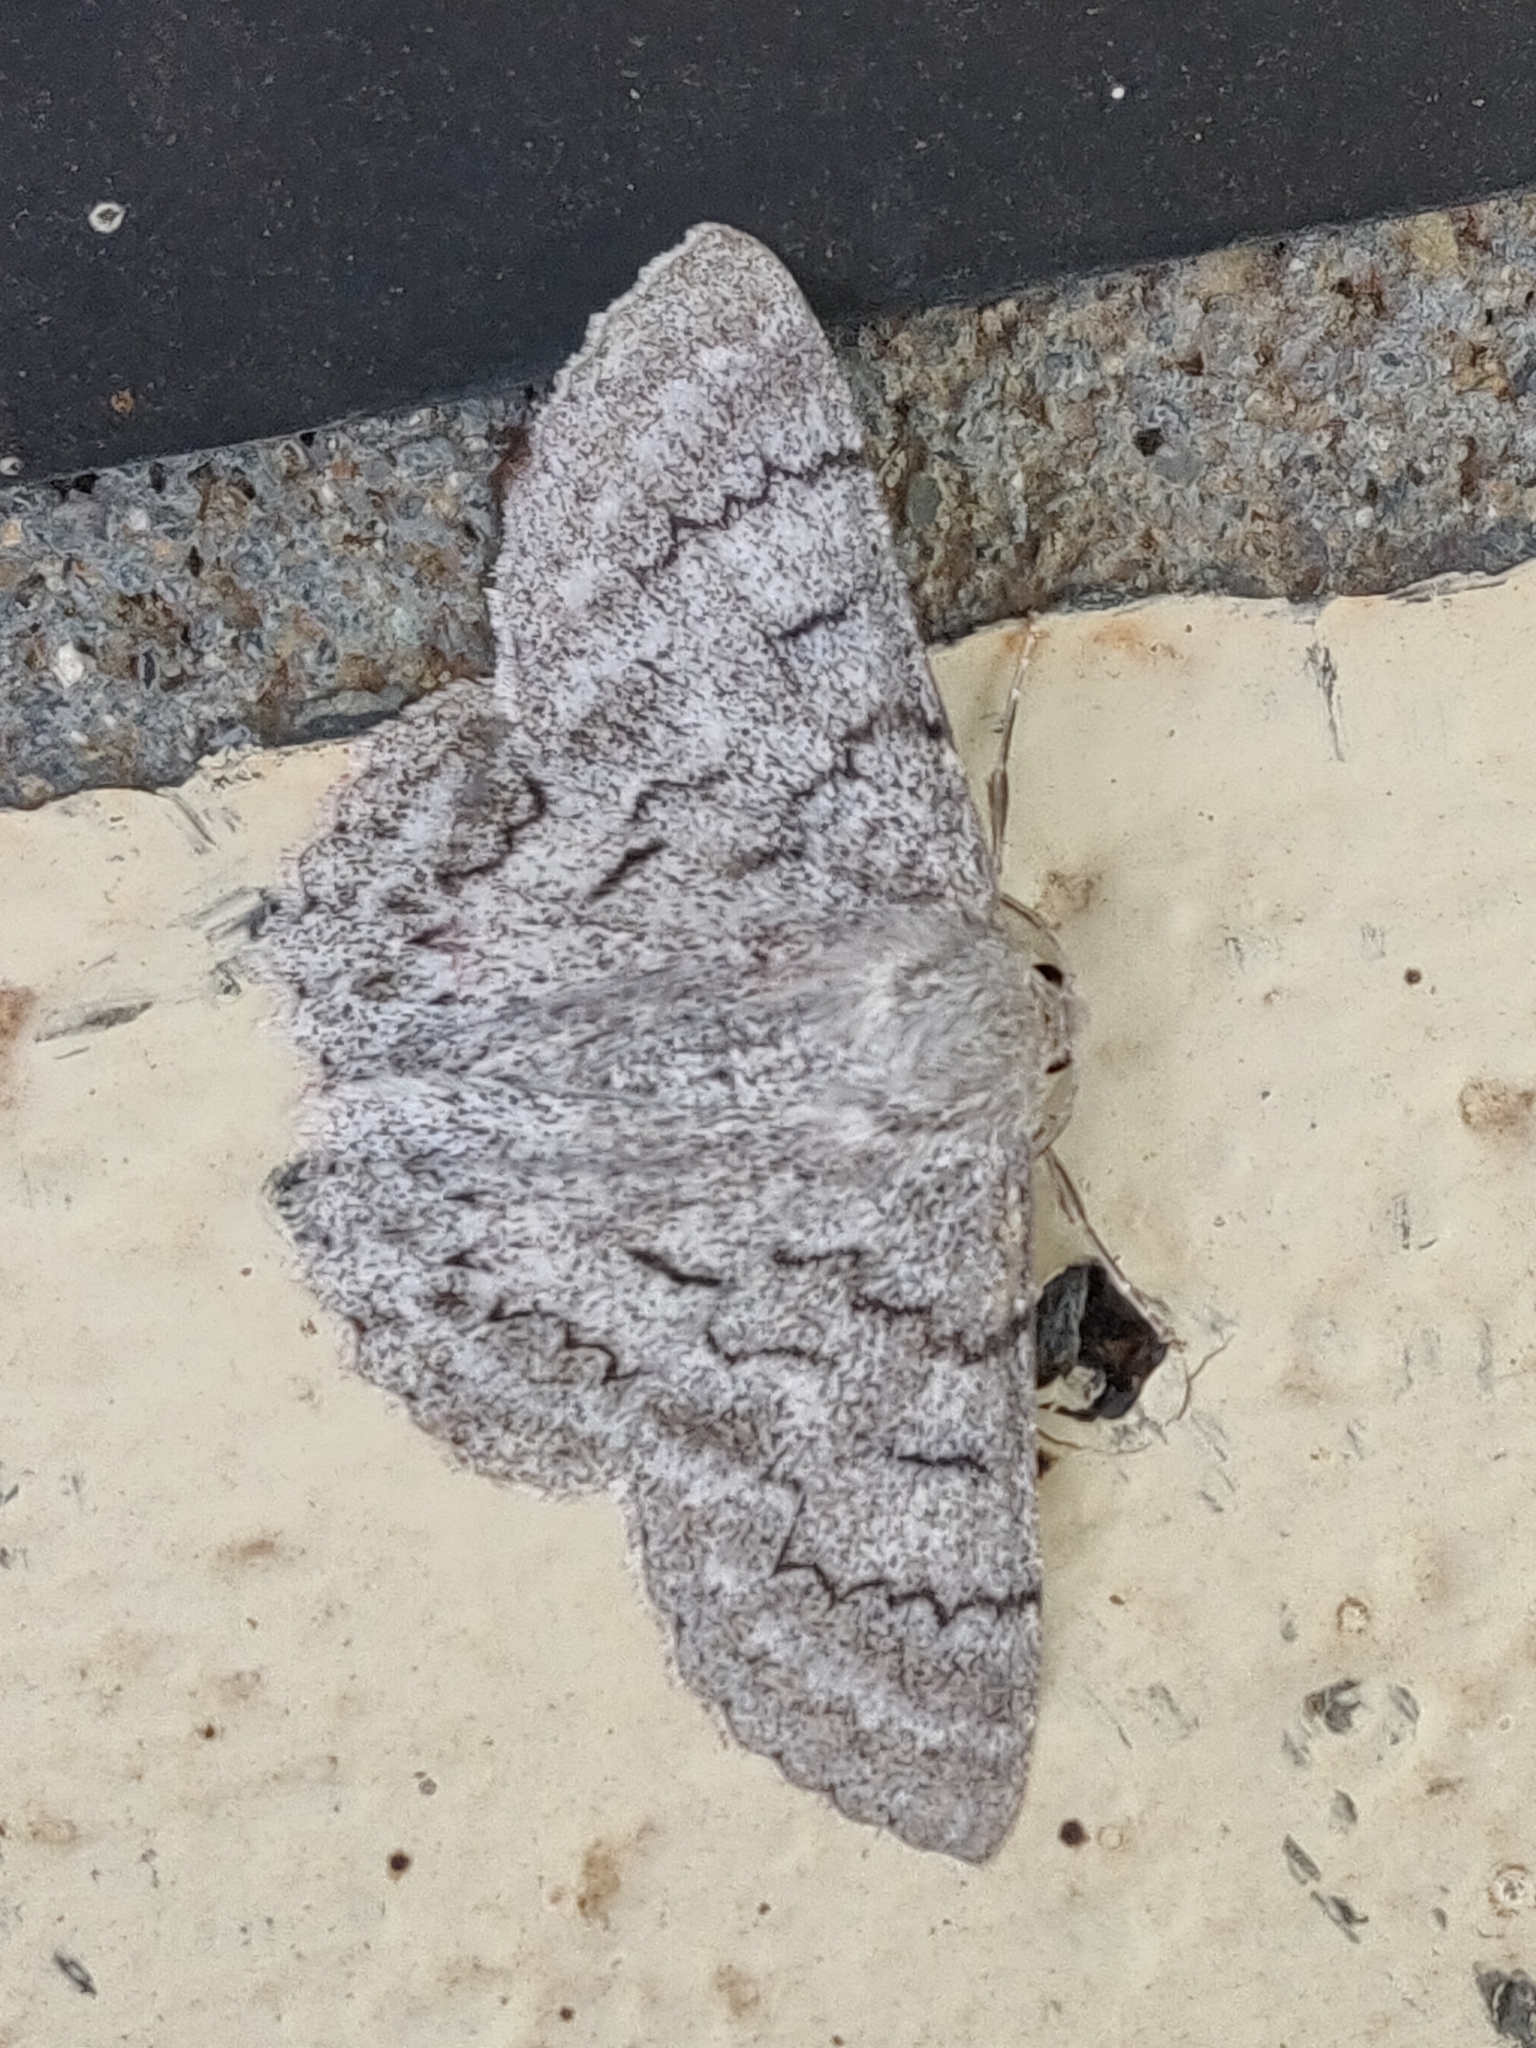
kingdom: Animalia
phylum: Arthropoda
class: Insecta
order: Lepidoptera
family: Geometridae
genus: Crypsiphona
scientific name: Crypsiphona ocultaria
